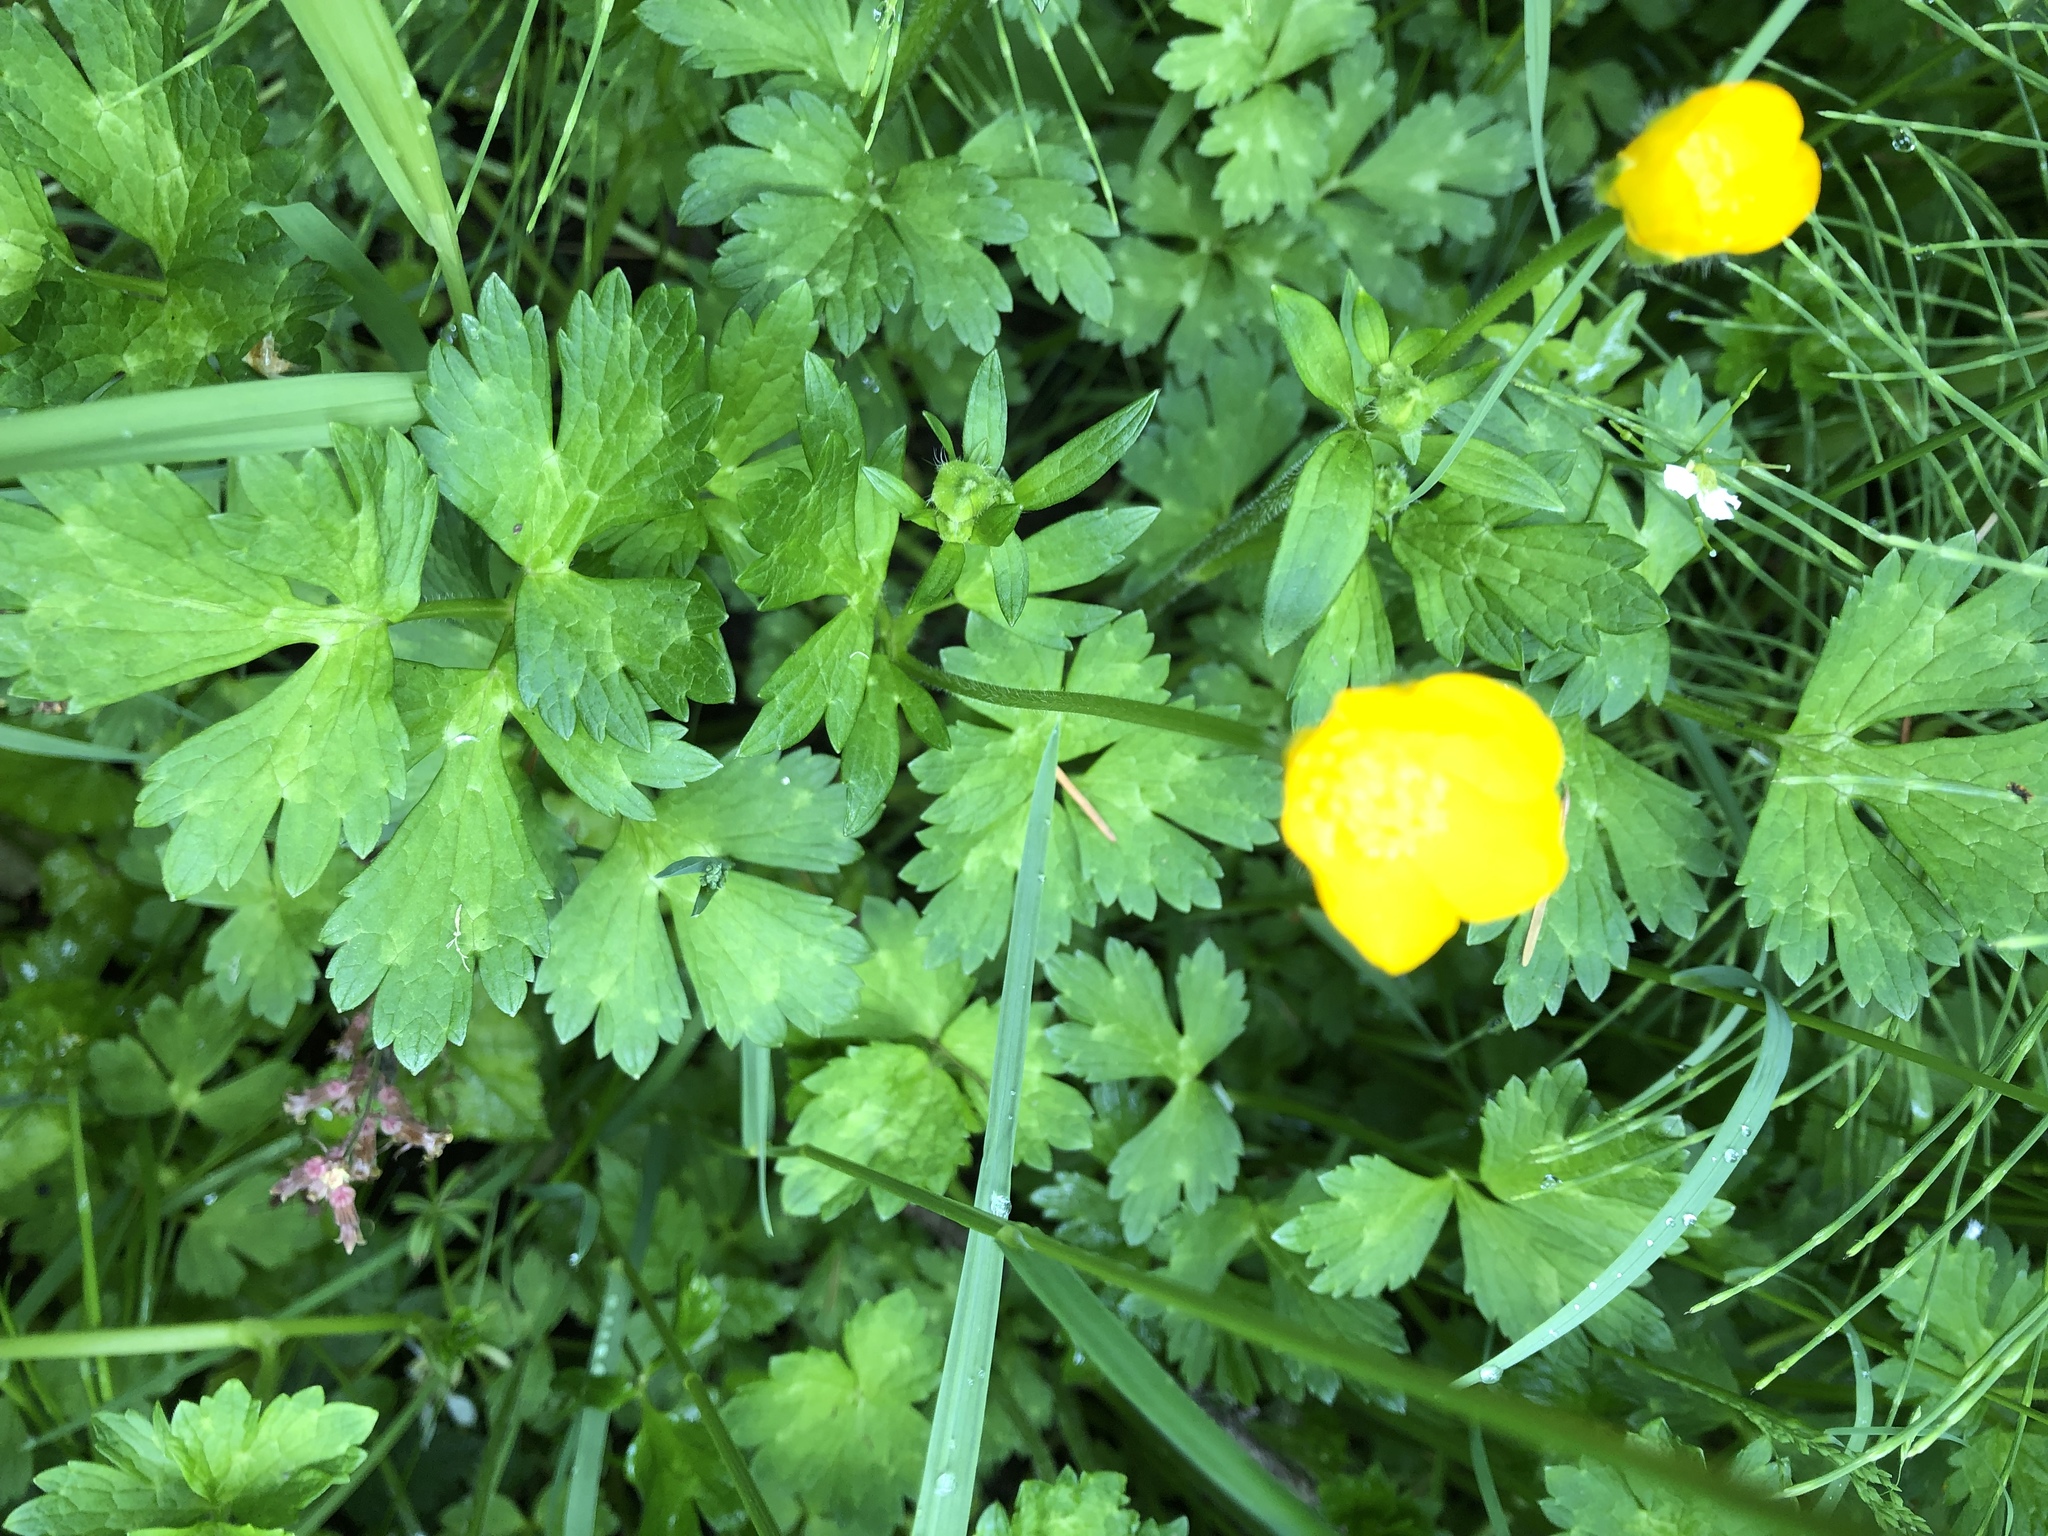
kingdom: Plantae
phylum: Tracheophyta
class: Magnoliopsida
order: Ranunculales
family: Ranunculaceae
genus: Ranunculus
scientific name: Ranunculus repens
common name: Creeping buttercup
